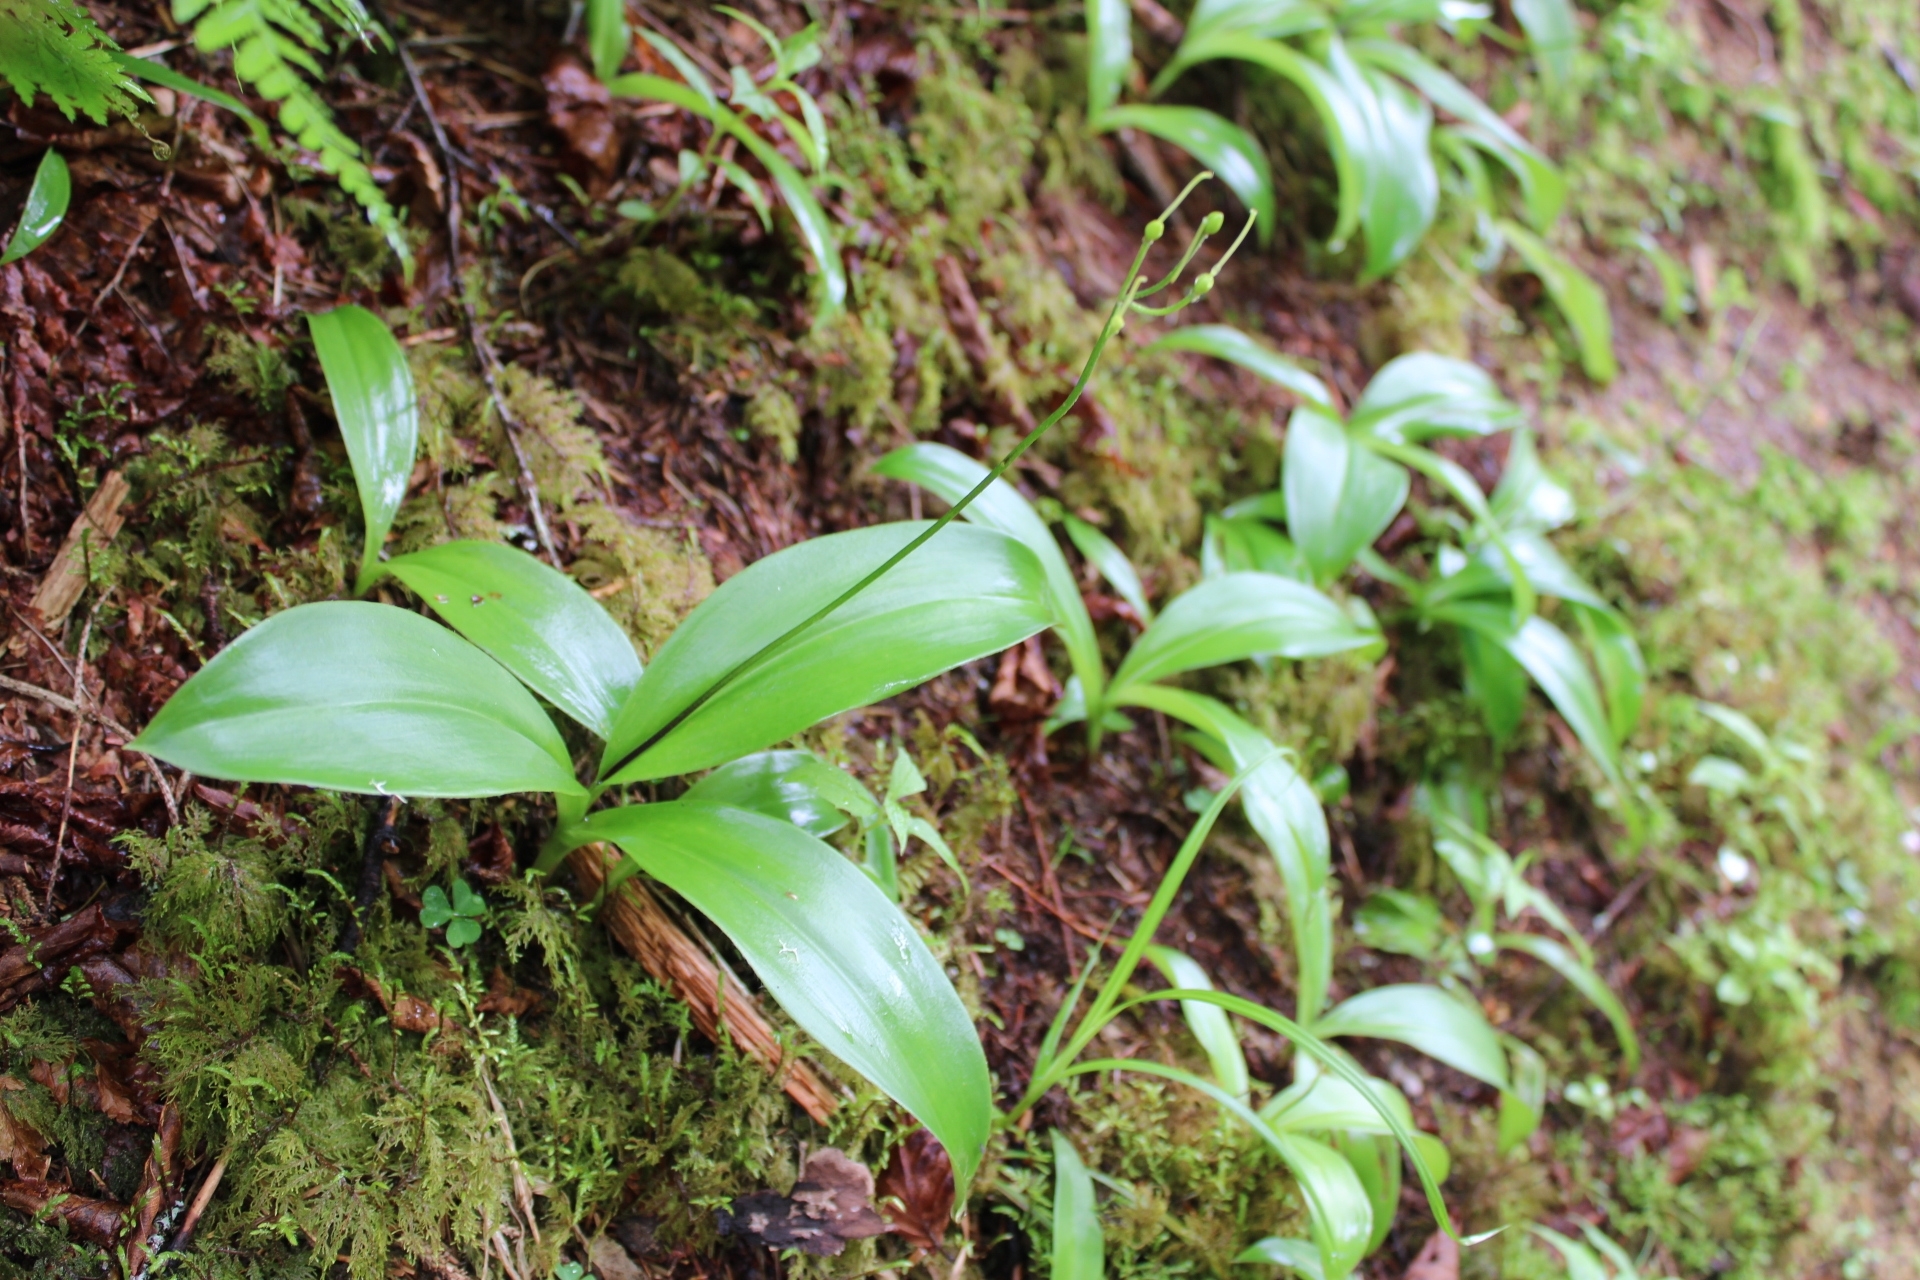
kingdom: Plantae
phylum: Tracheophyta
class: Liliopsida
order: Liliales
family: Liliaceae
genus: Clintonia
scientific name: Clintonia borealis
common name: Yellow clintonia
